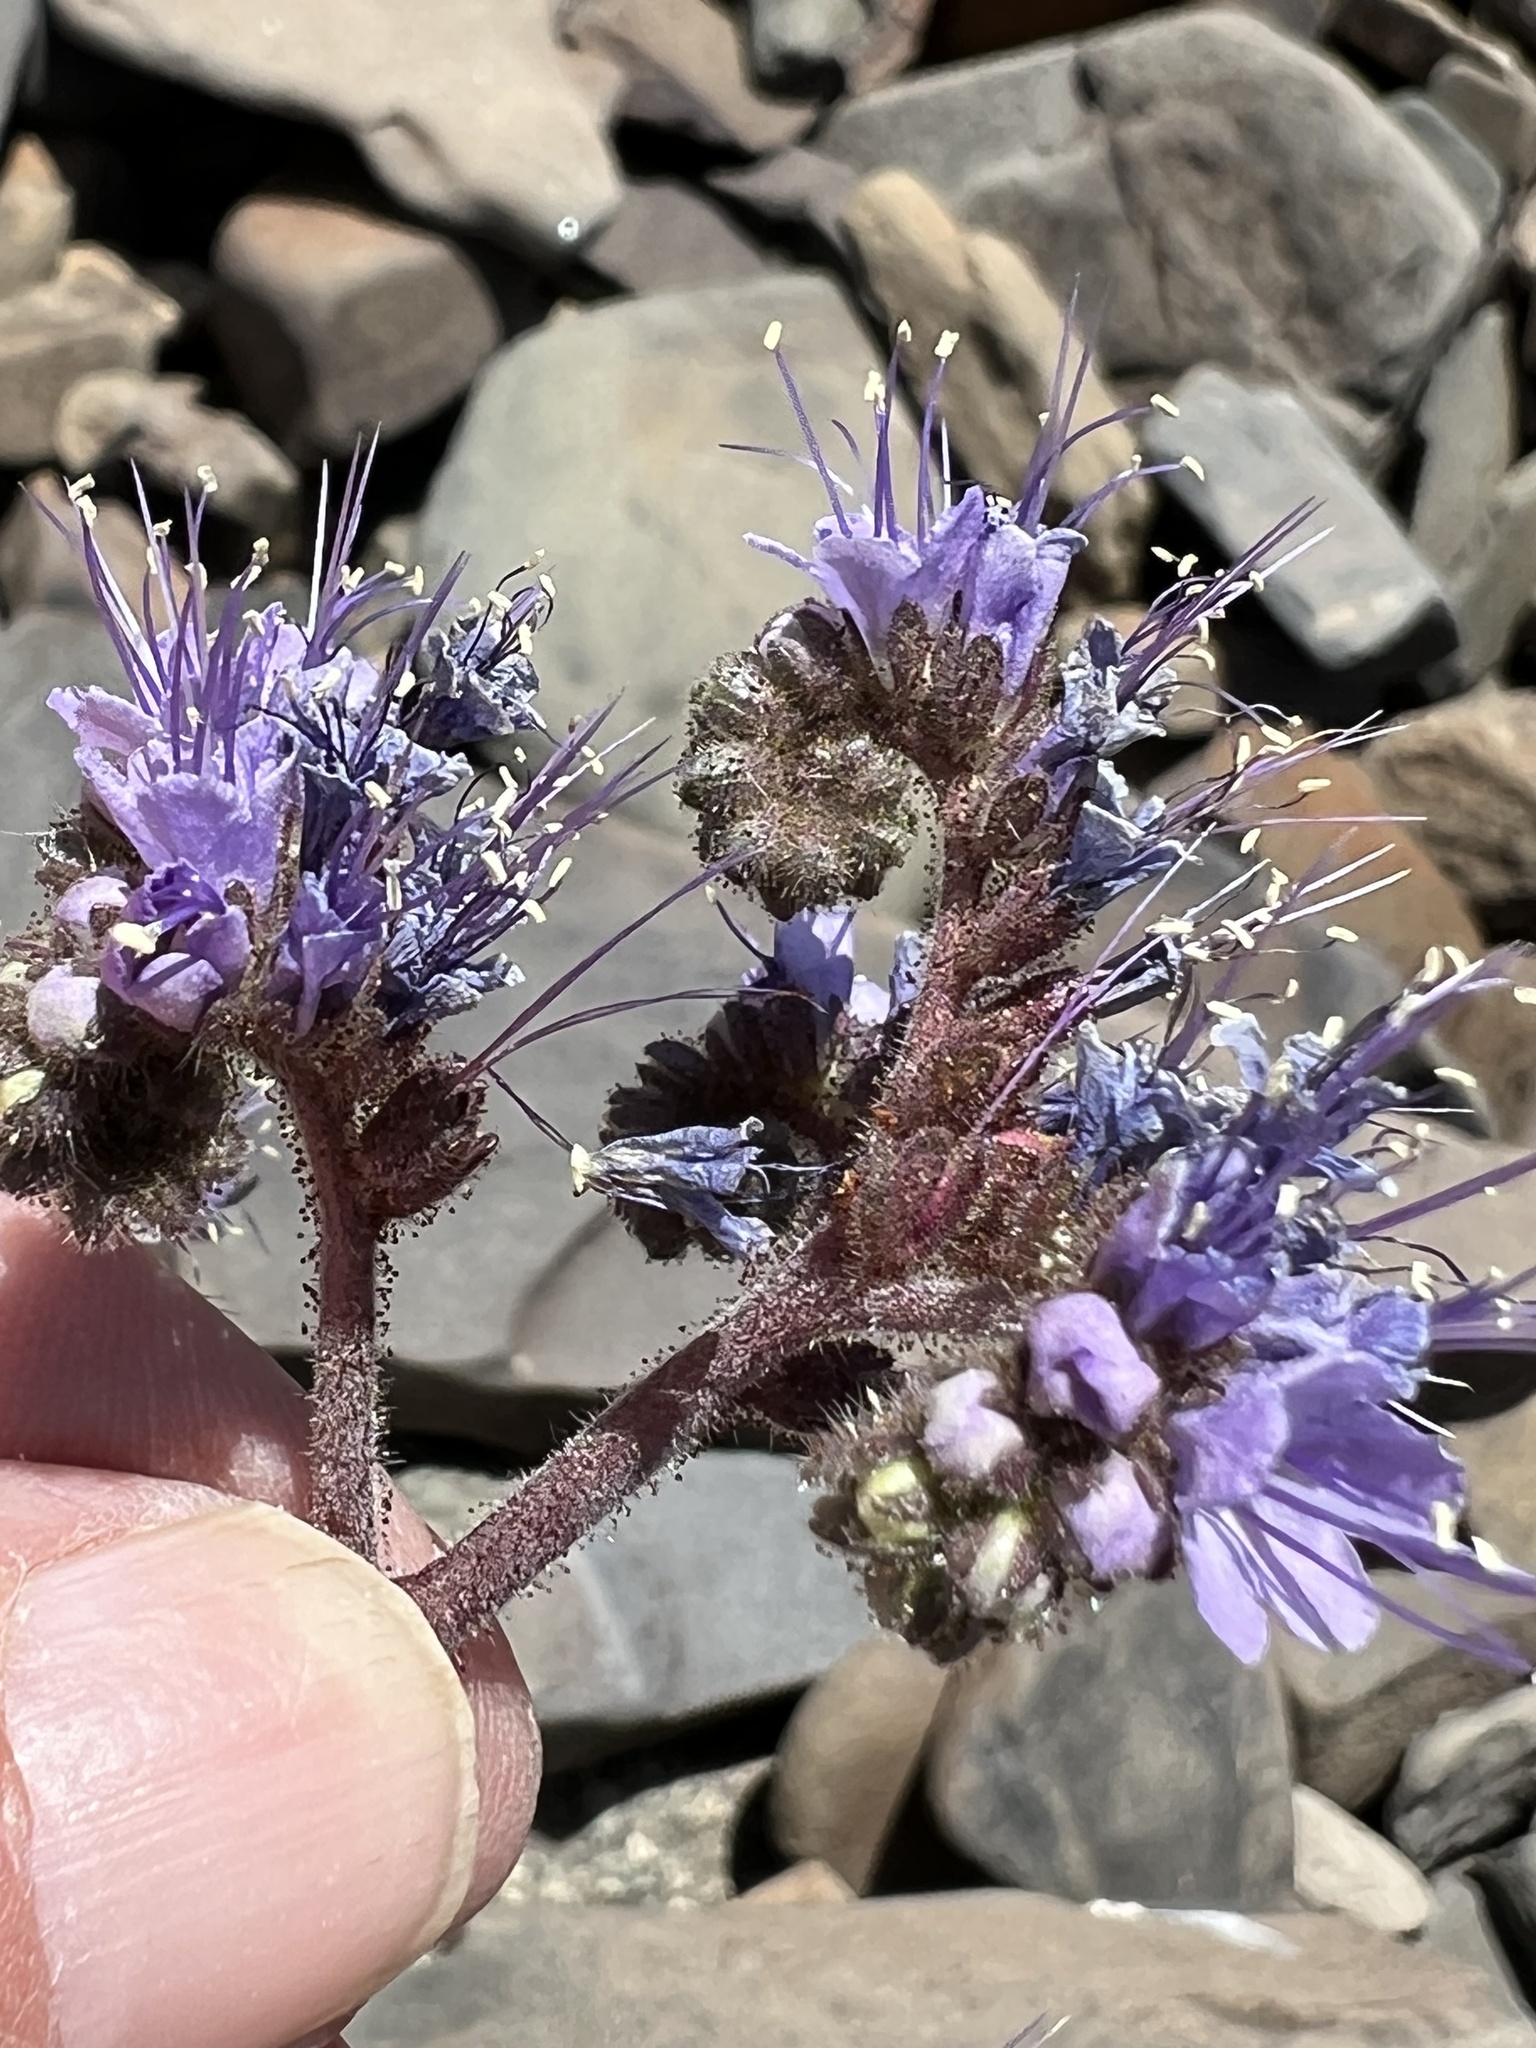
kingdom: Plantae
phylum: Tracheophyta
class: Magnoliopsida
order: Boraginales
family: Hydrophyllaceae
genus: Phacelia
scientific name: Phacelia crenulata
